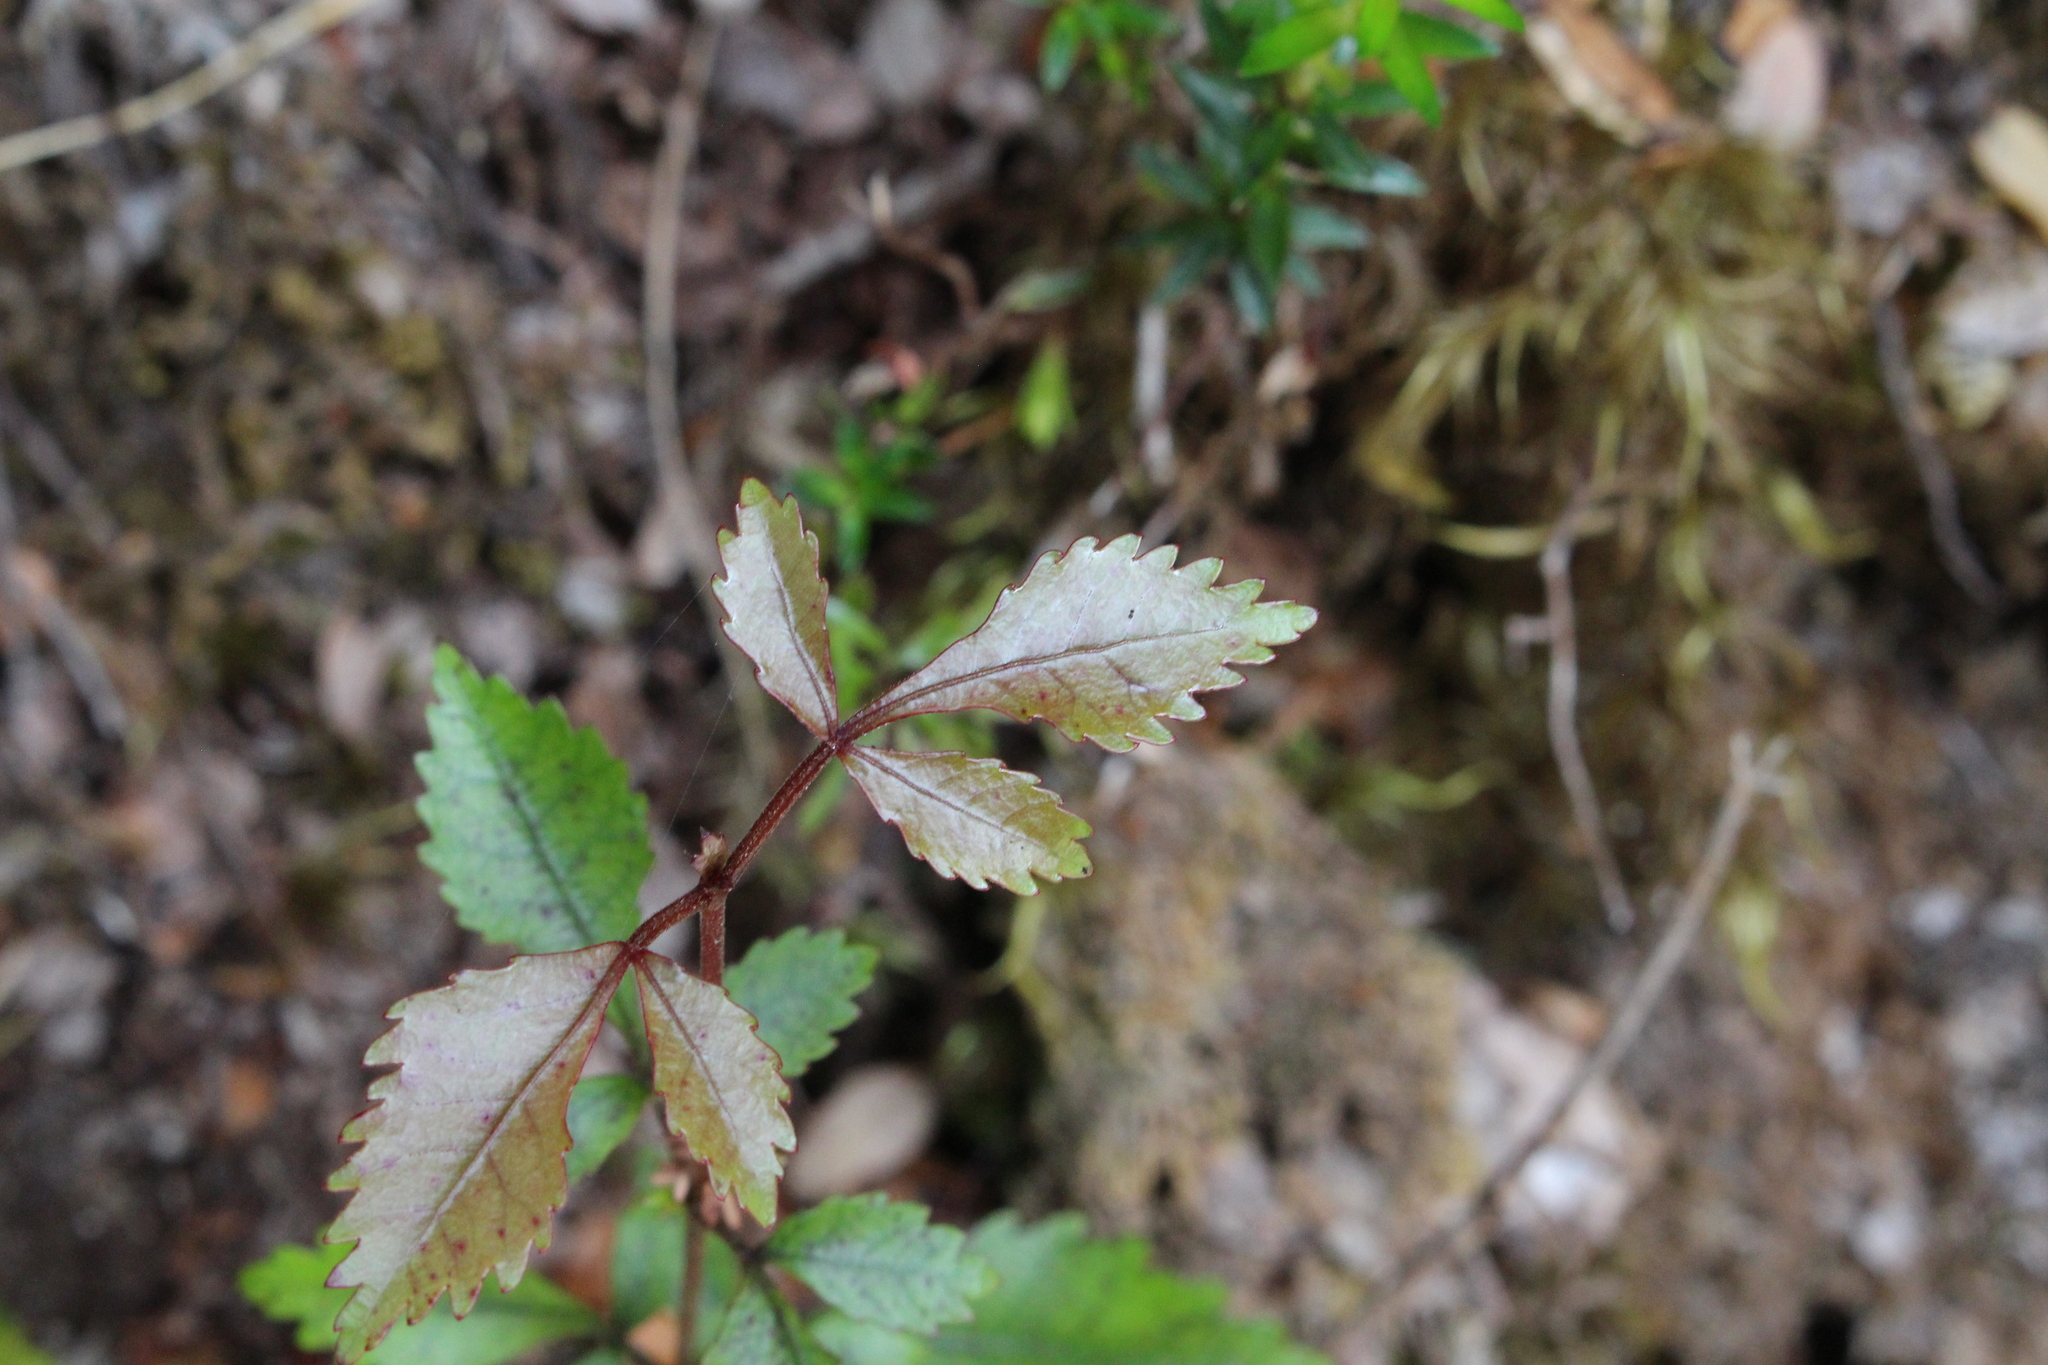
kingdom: Plantae
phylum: Tracheophyta
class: Magnoliopsida
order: Oxalidales
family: Cunoniaceae
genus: Pterophylla
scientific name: Pterophylla racemosa
